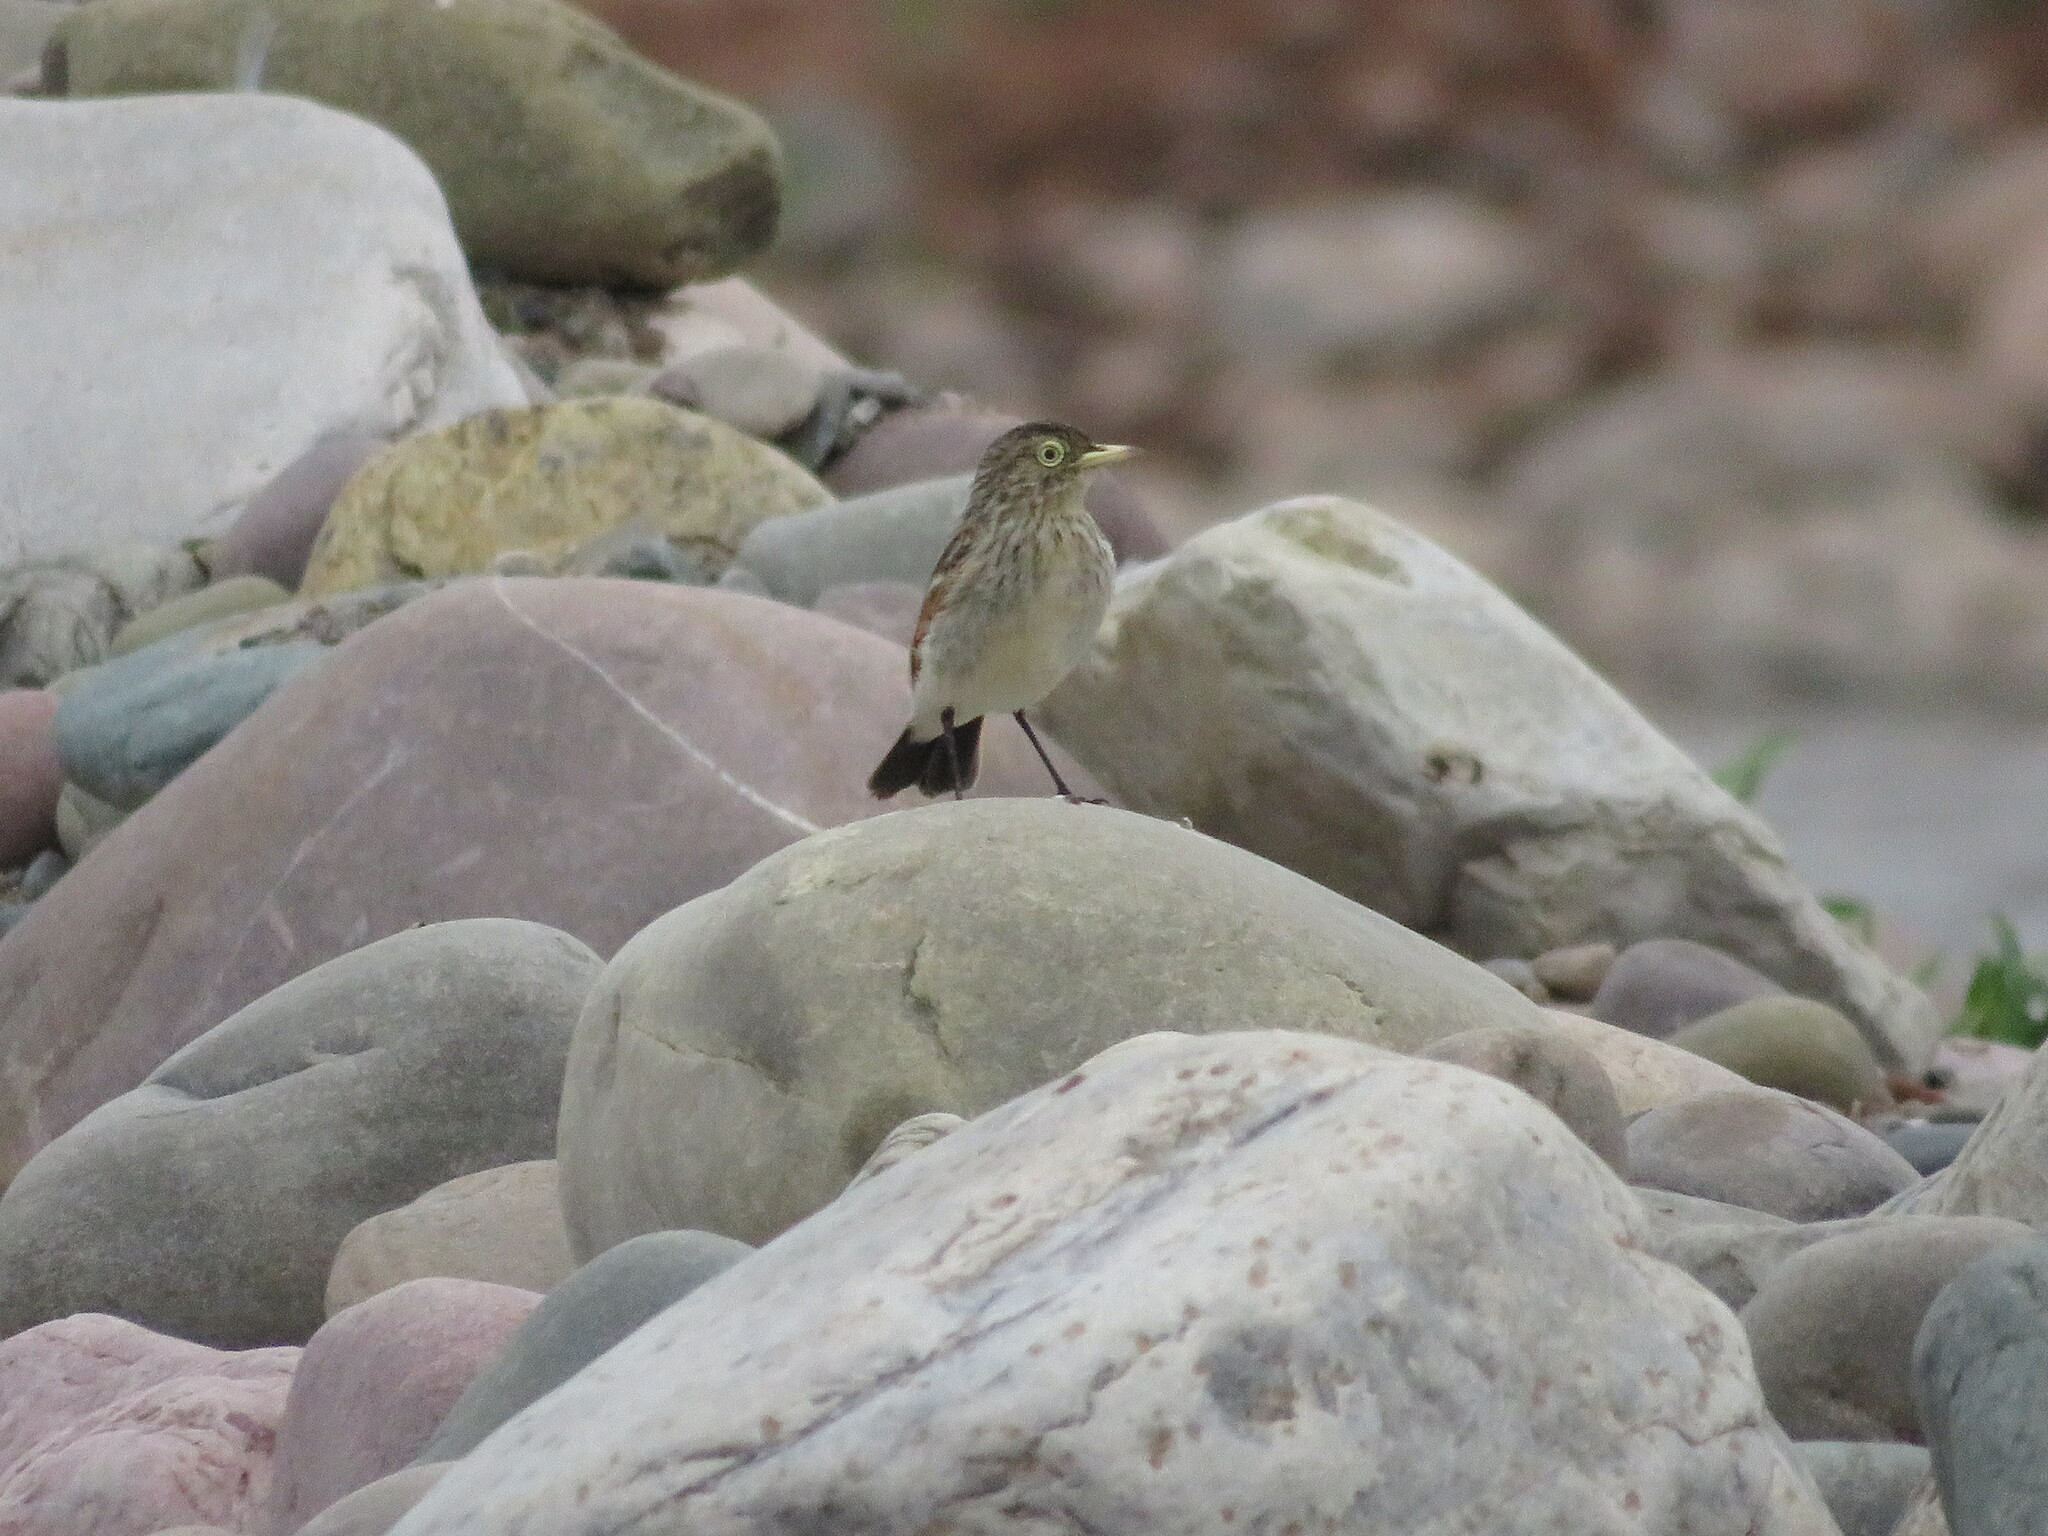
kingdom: Animalia
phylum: Chordata
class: Aves
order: Passeriformes
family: Tyrannidae
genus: Hymenops
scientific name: Hymenops perspicillatus
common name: Spectacled tyrant
